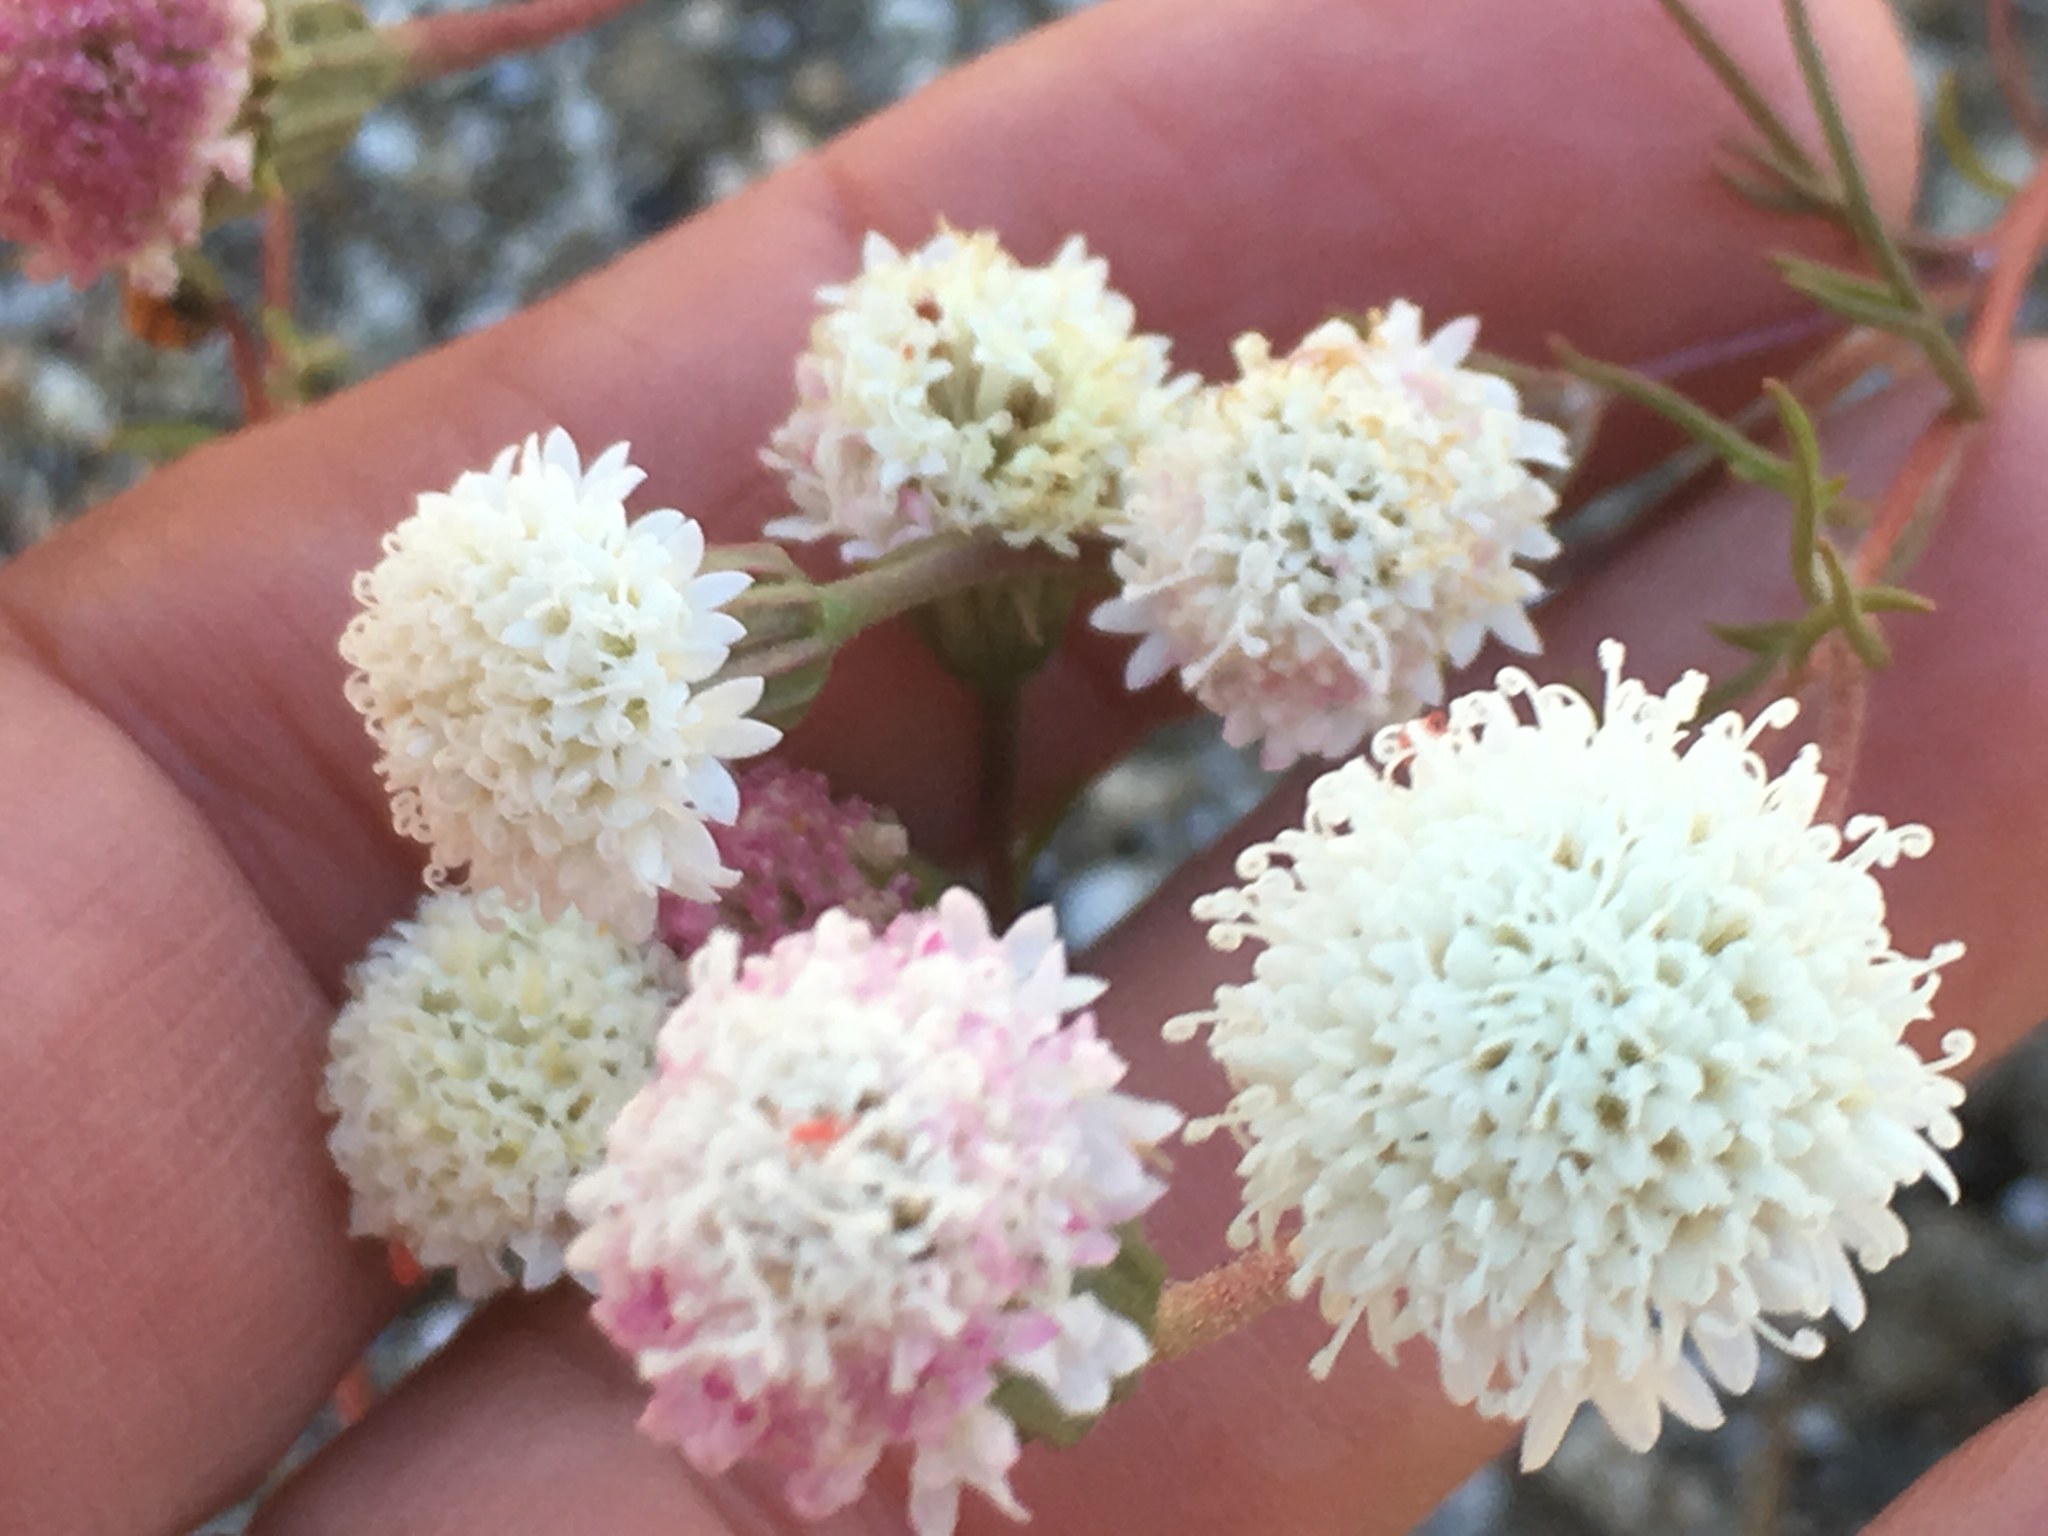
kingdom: Plantae
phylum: Tracheophyta
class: Magnoliopsida
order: Asterales
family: Asteraceae
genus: Chaenactis
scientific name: Chaenactis fremontii
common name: Fremont pincushion
